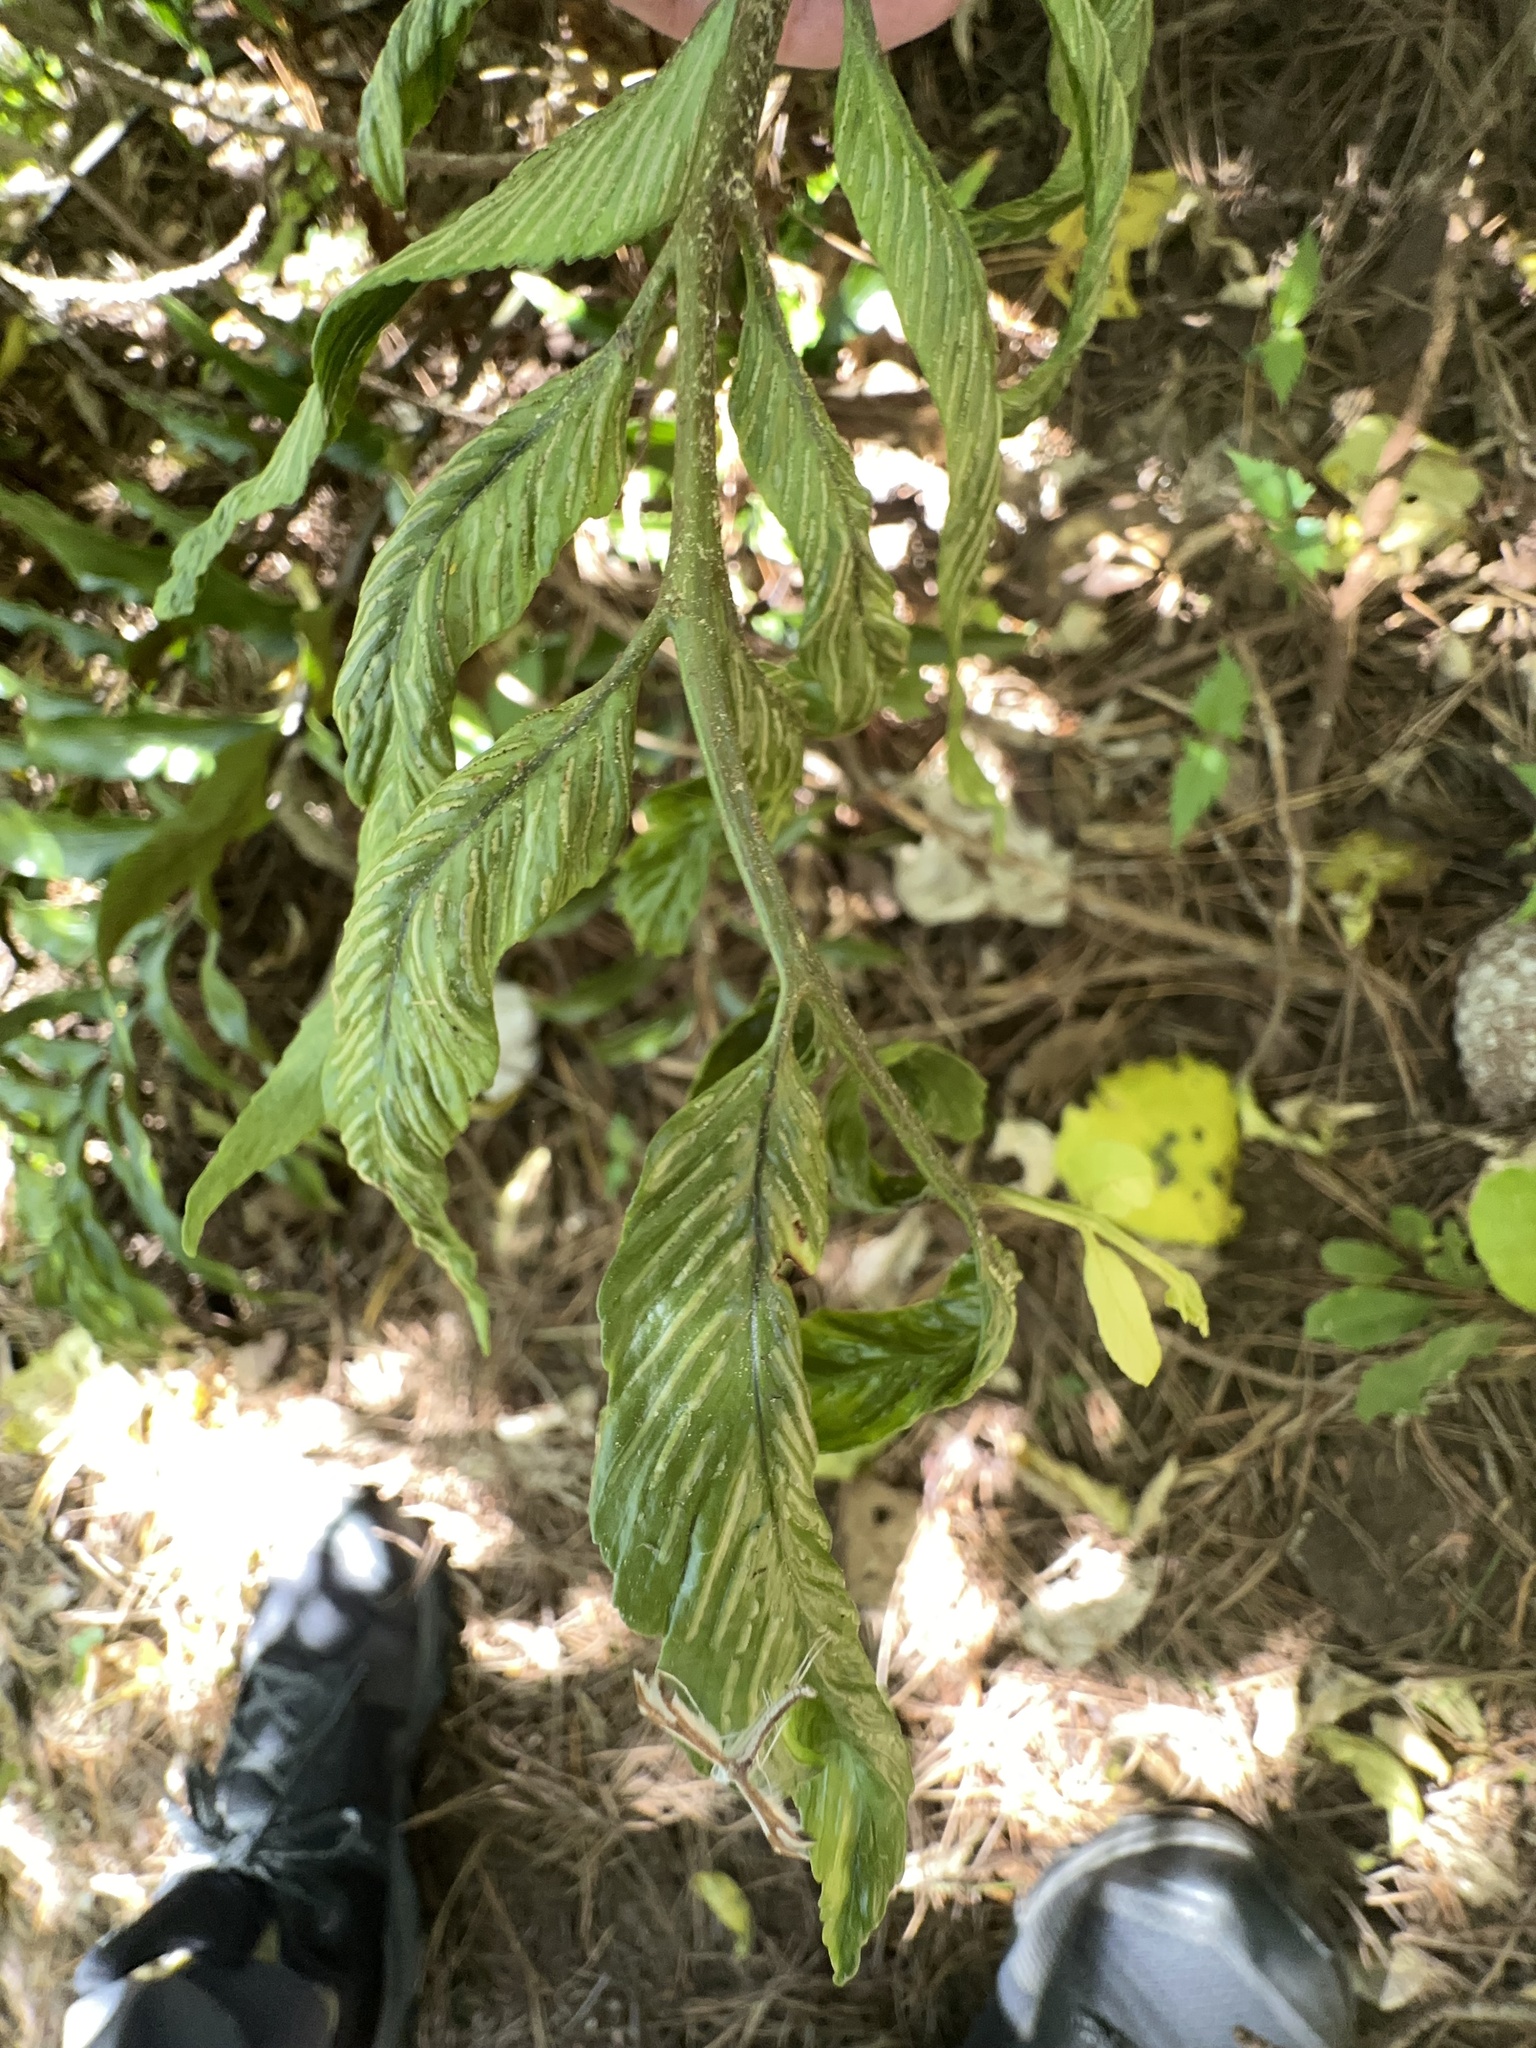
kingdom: Plantae
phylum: Tracheophyta
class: Polypodiopsida
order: Polypodiales
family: Aspleniaceae
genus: Asplenium
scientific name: Asplenium oblongifolium
